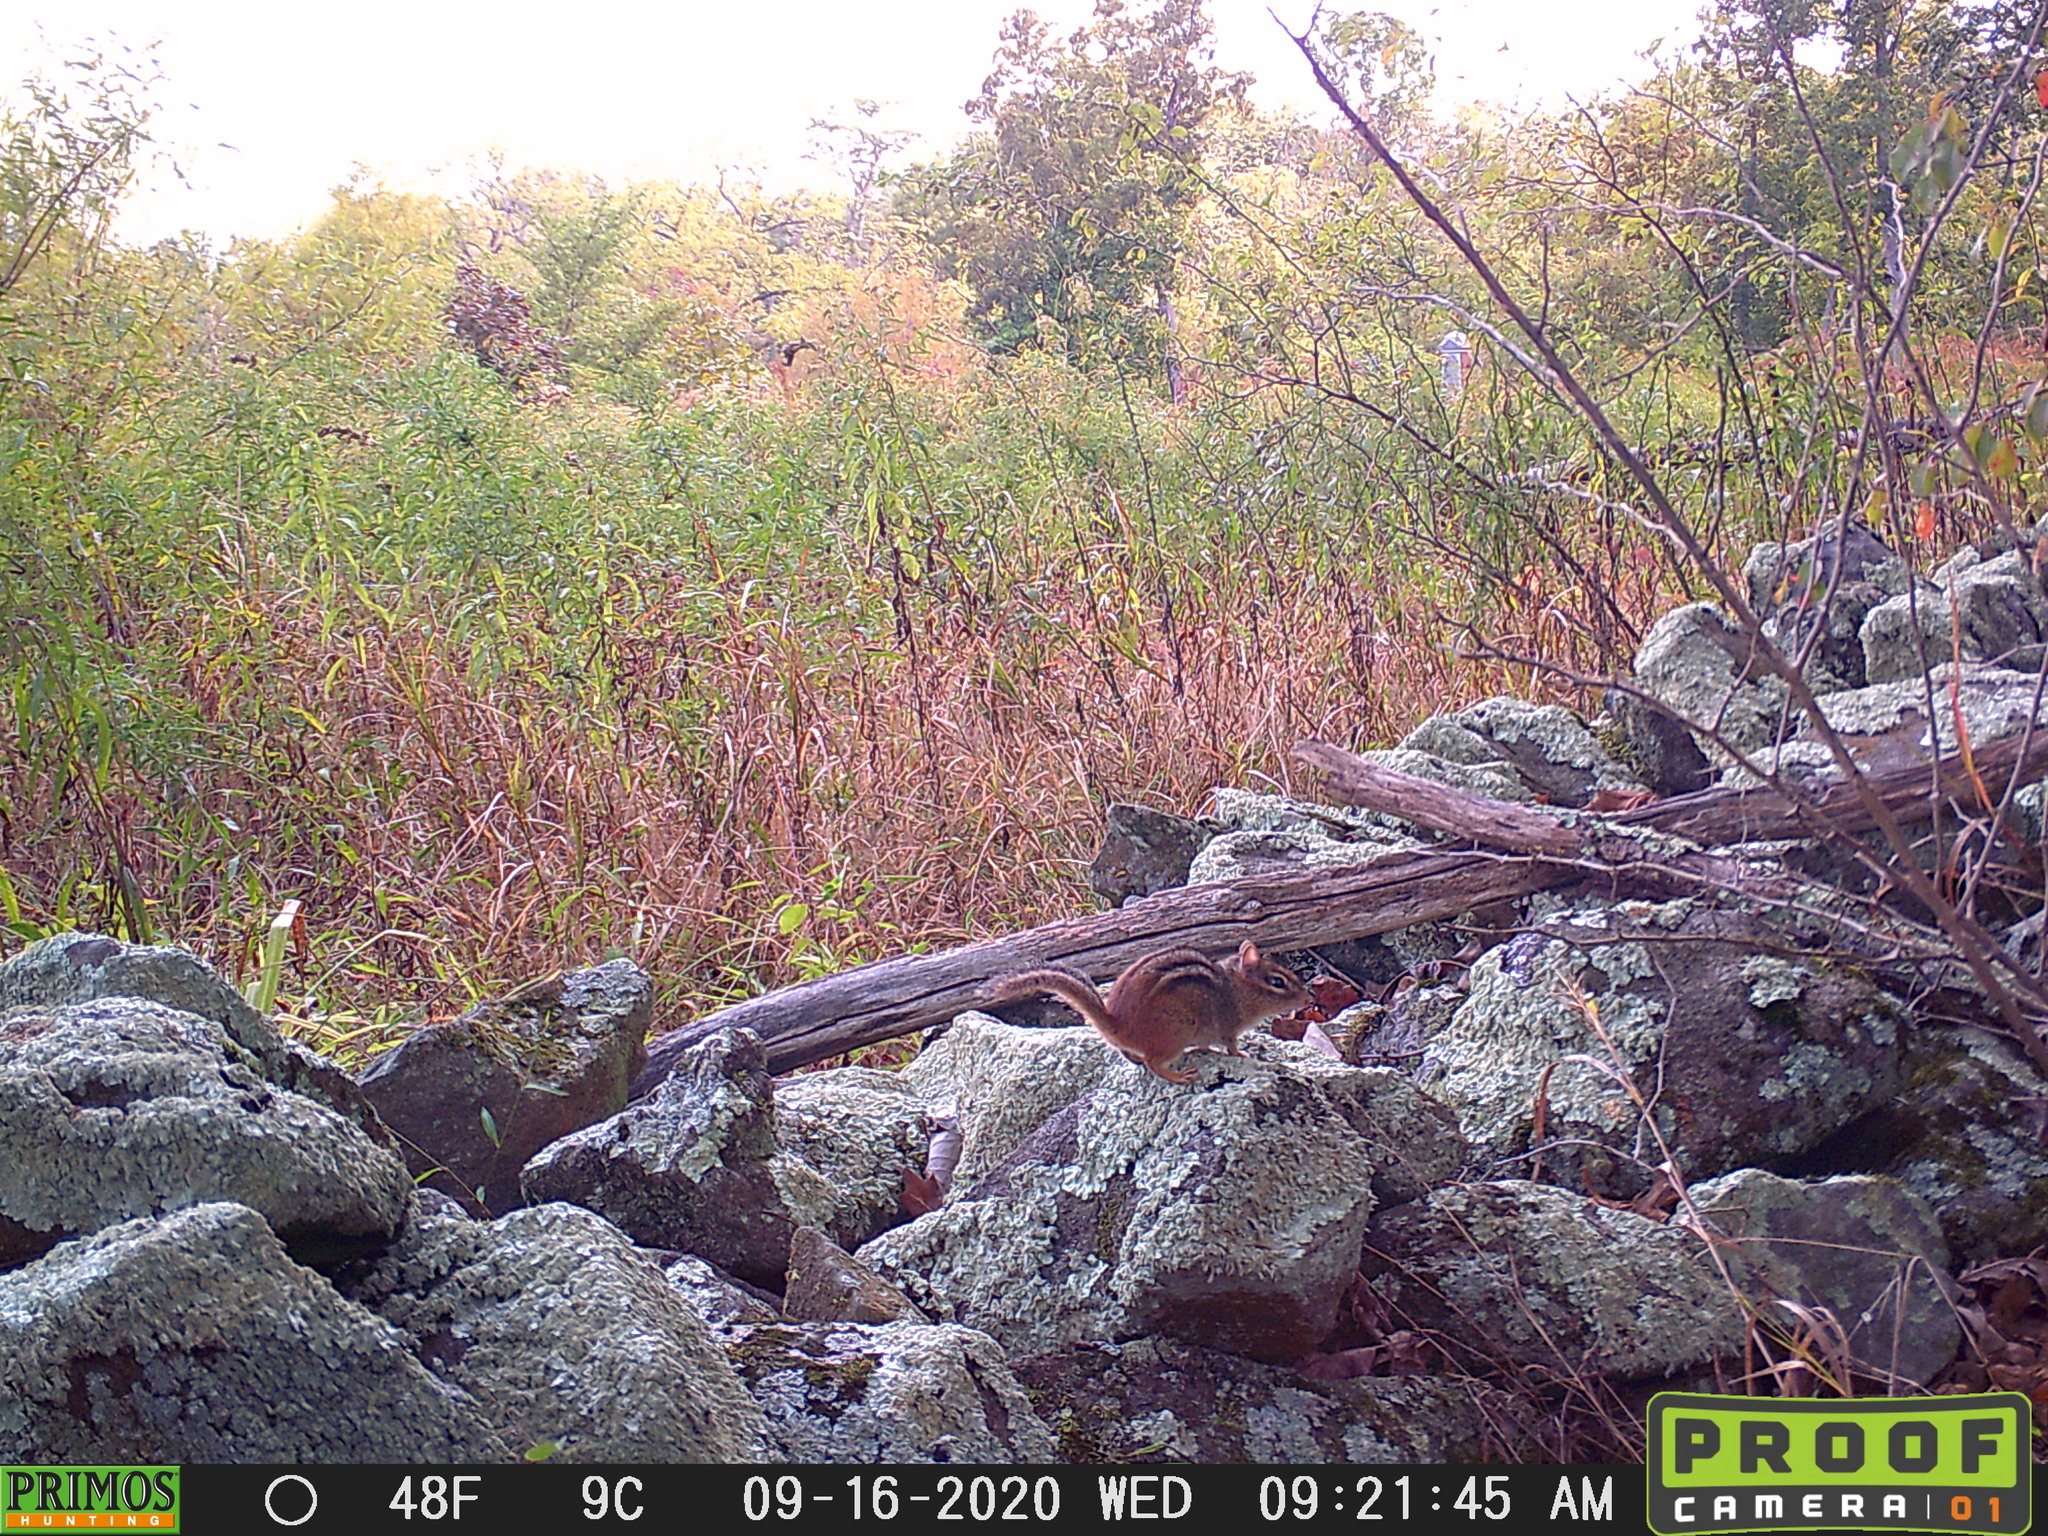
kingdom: Animalia
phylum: Chordata
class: Mammalia
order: Rodentia
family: Sciuridae
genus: Tamias
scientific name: Tamias striatus
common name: Eastern chipmunk
